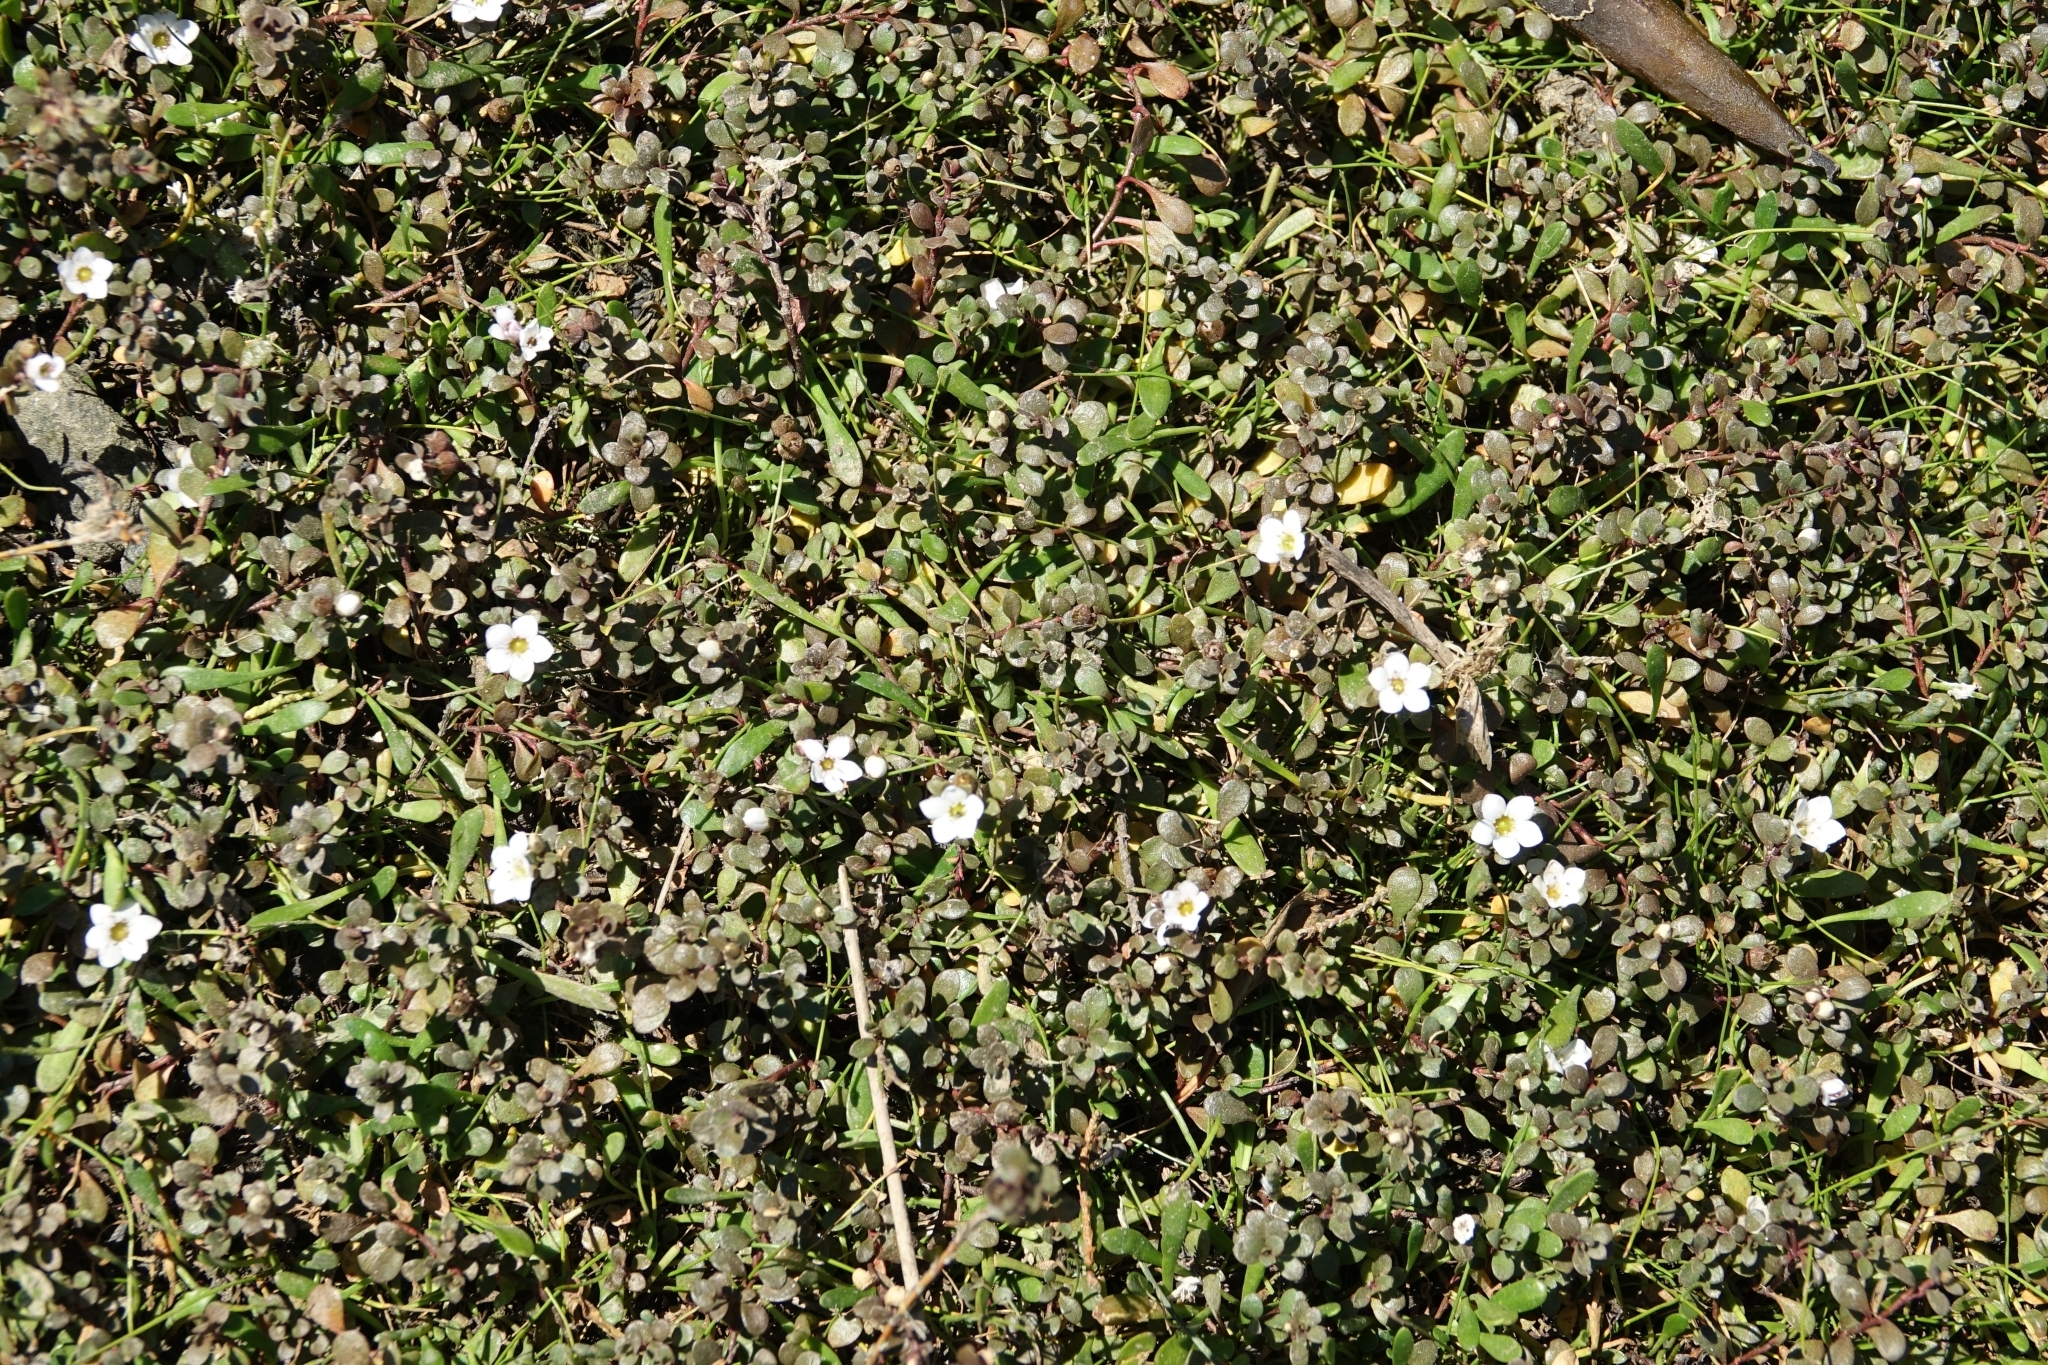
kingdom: Plantae
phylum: Tracheophyta
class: Magnoliopsida
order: Ericales
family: Primulaceae
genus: Samolus
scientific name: Samolus repens
